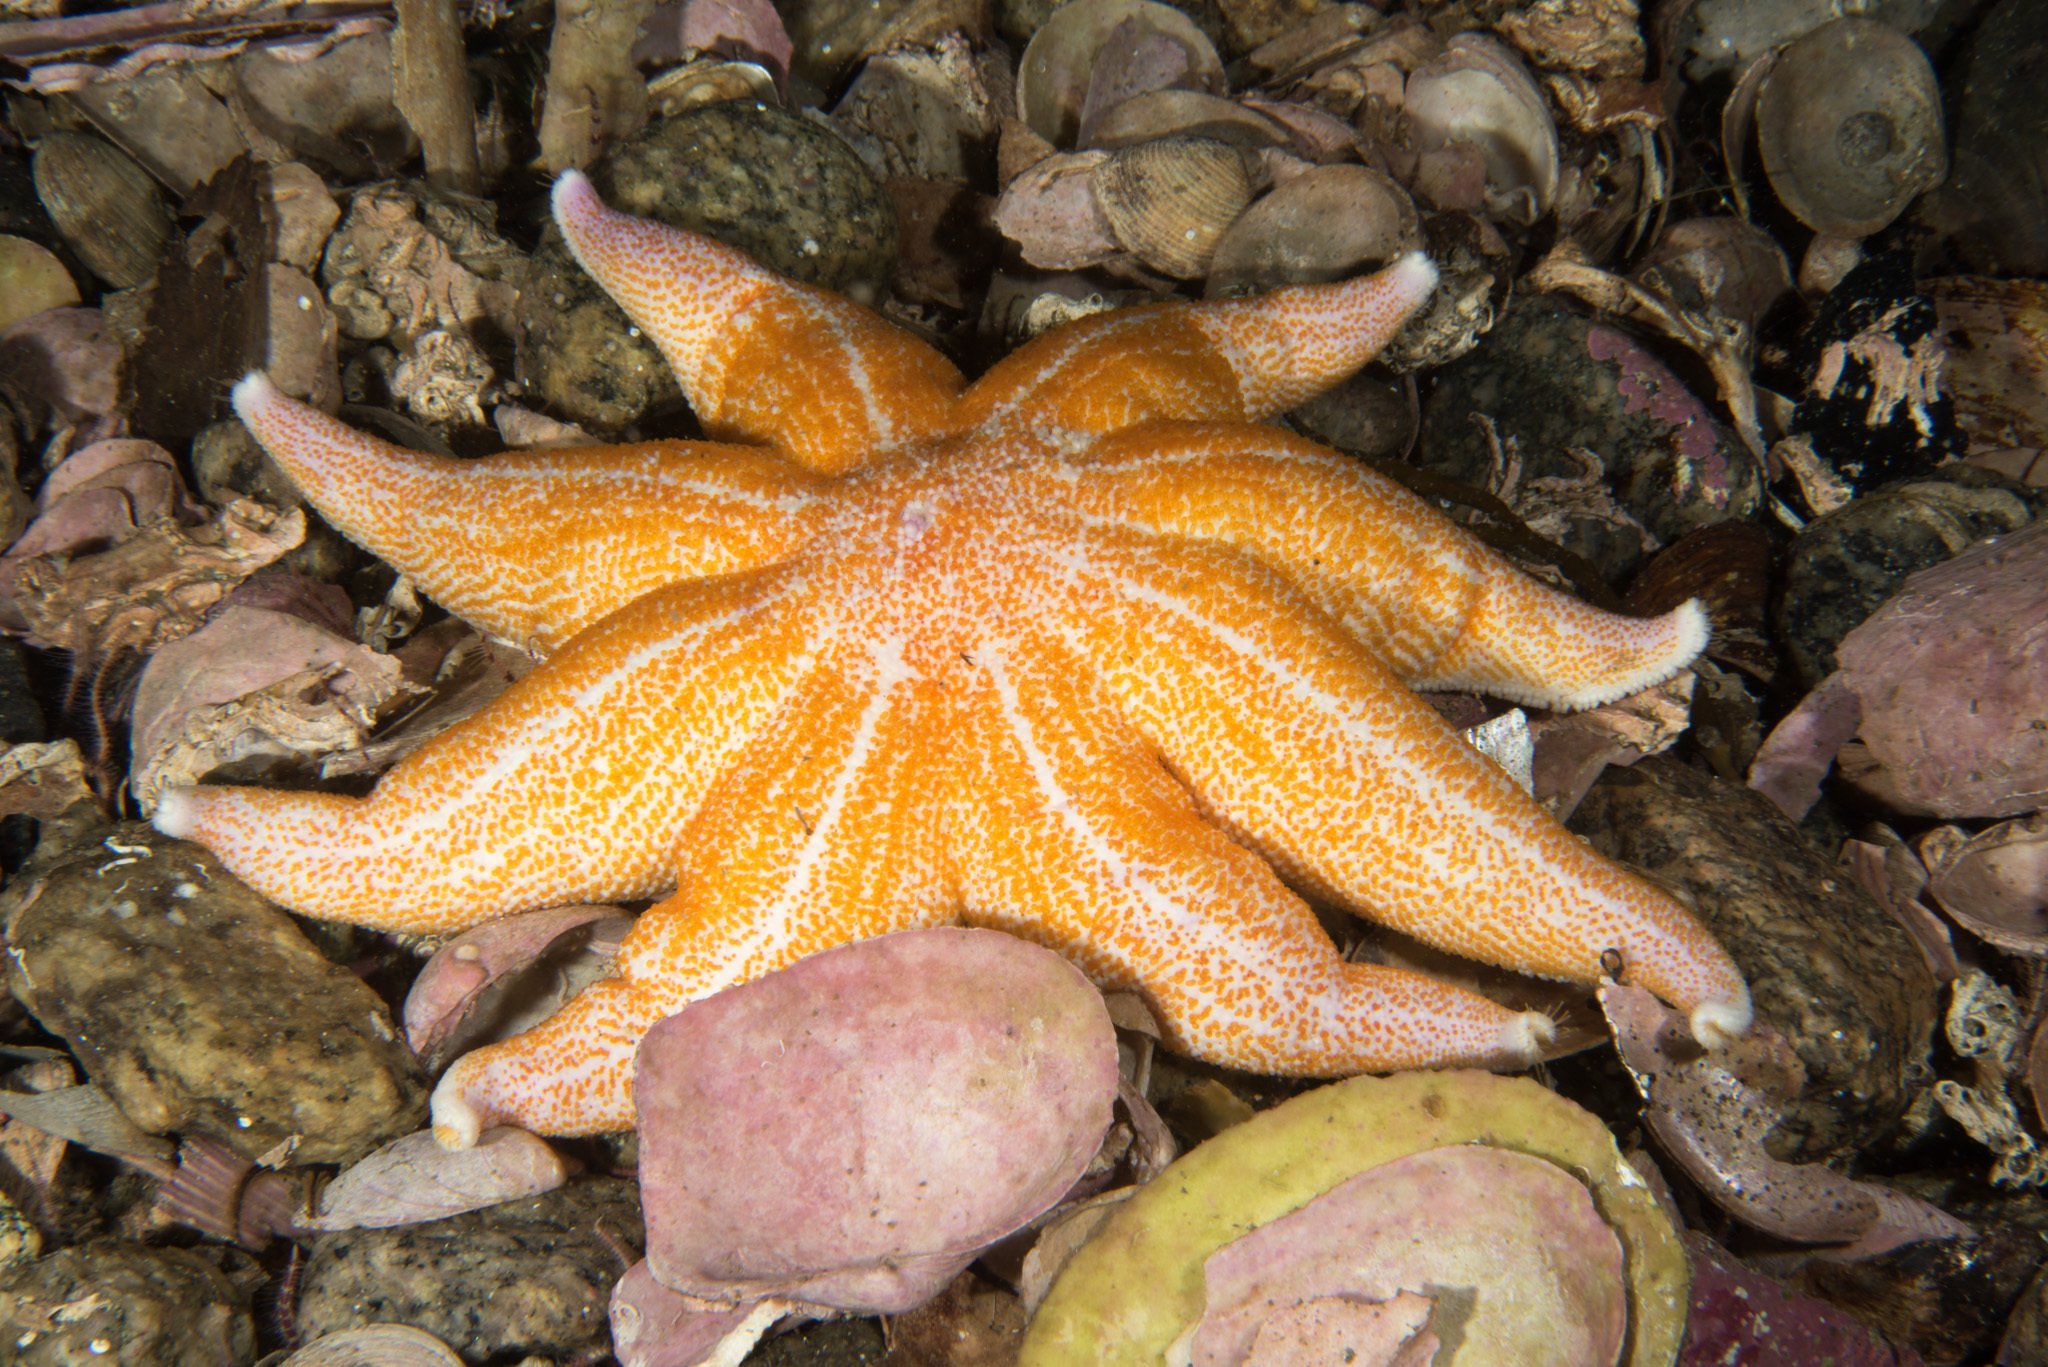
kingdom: Animalia
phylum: Echinodermata
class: Asteroidea
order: Valvatida
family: Solasteridae
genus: Solaster
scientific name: Solaster endeca
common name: Purple sun star
